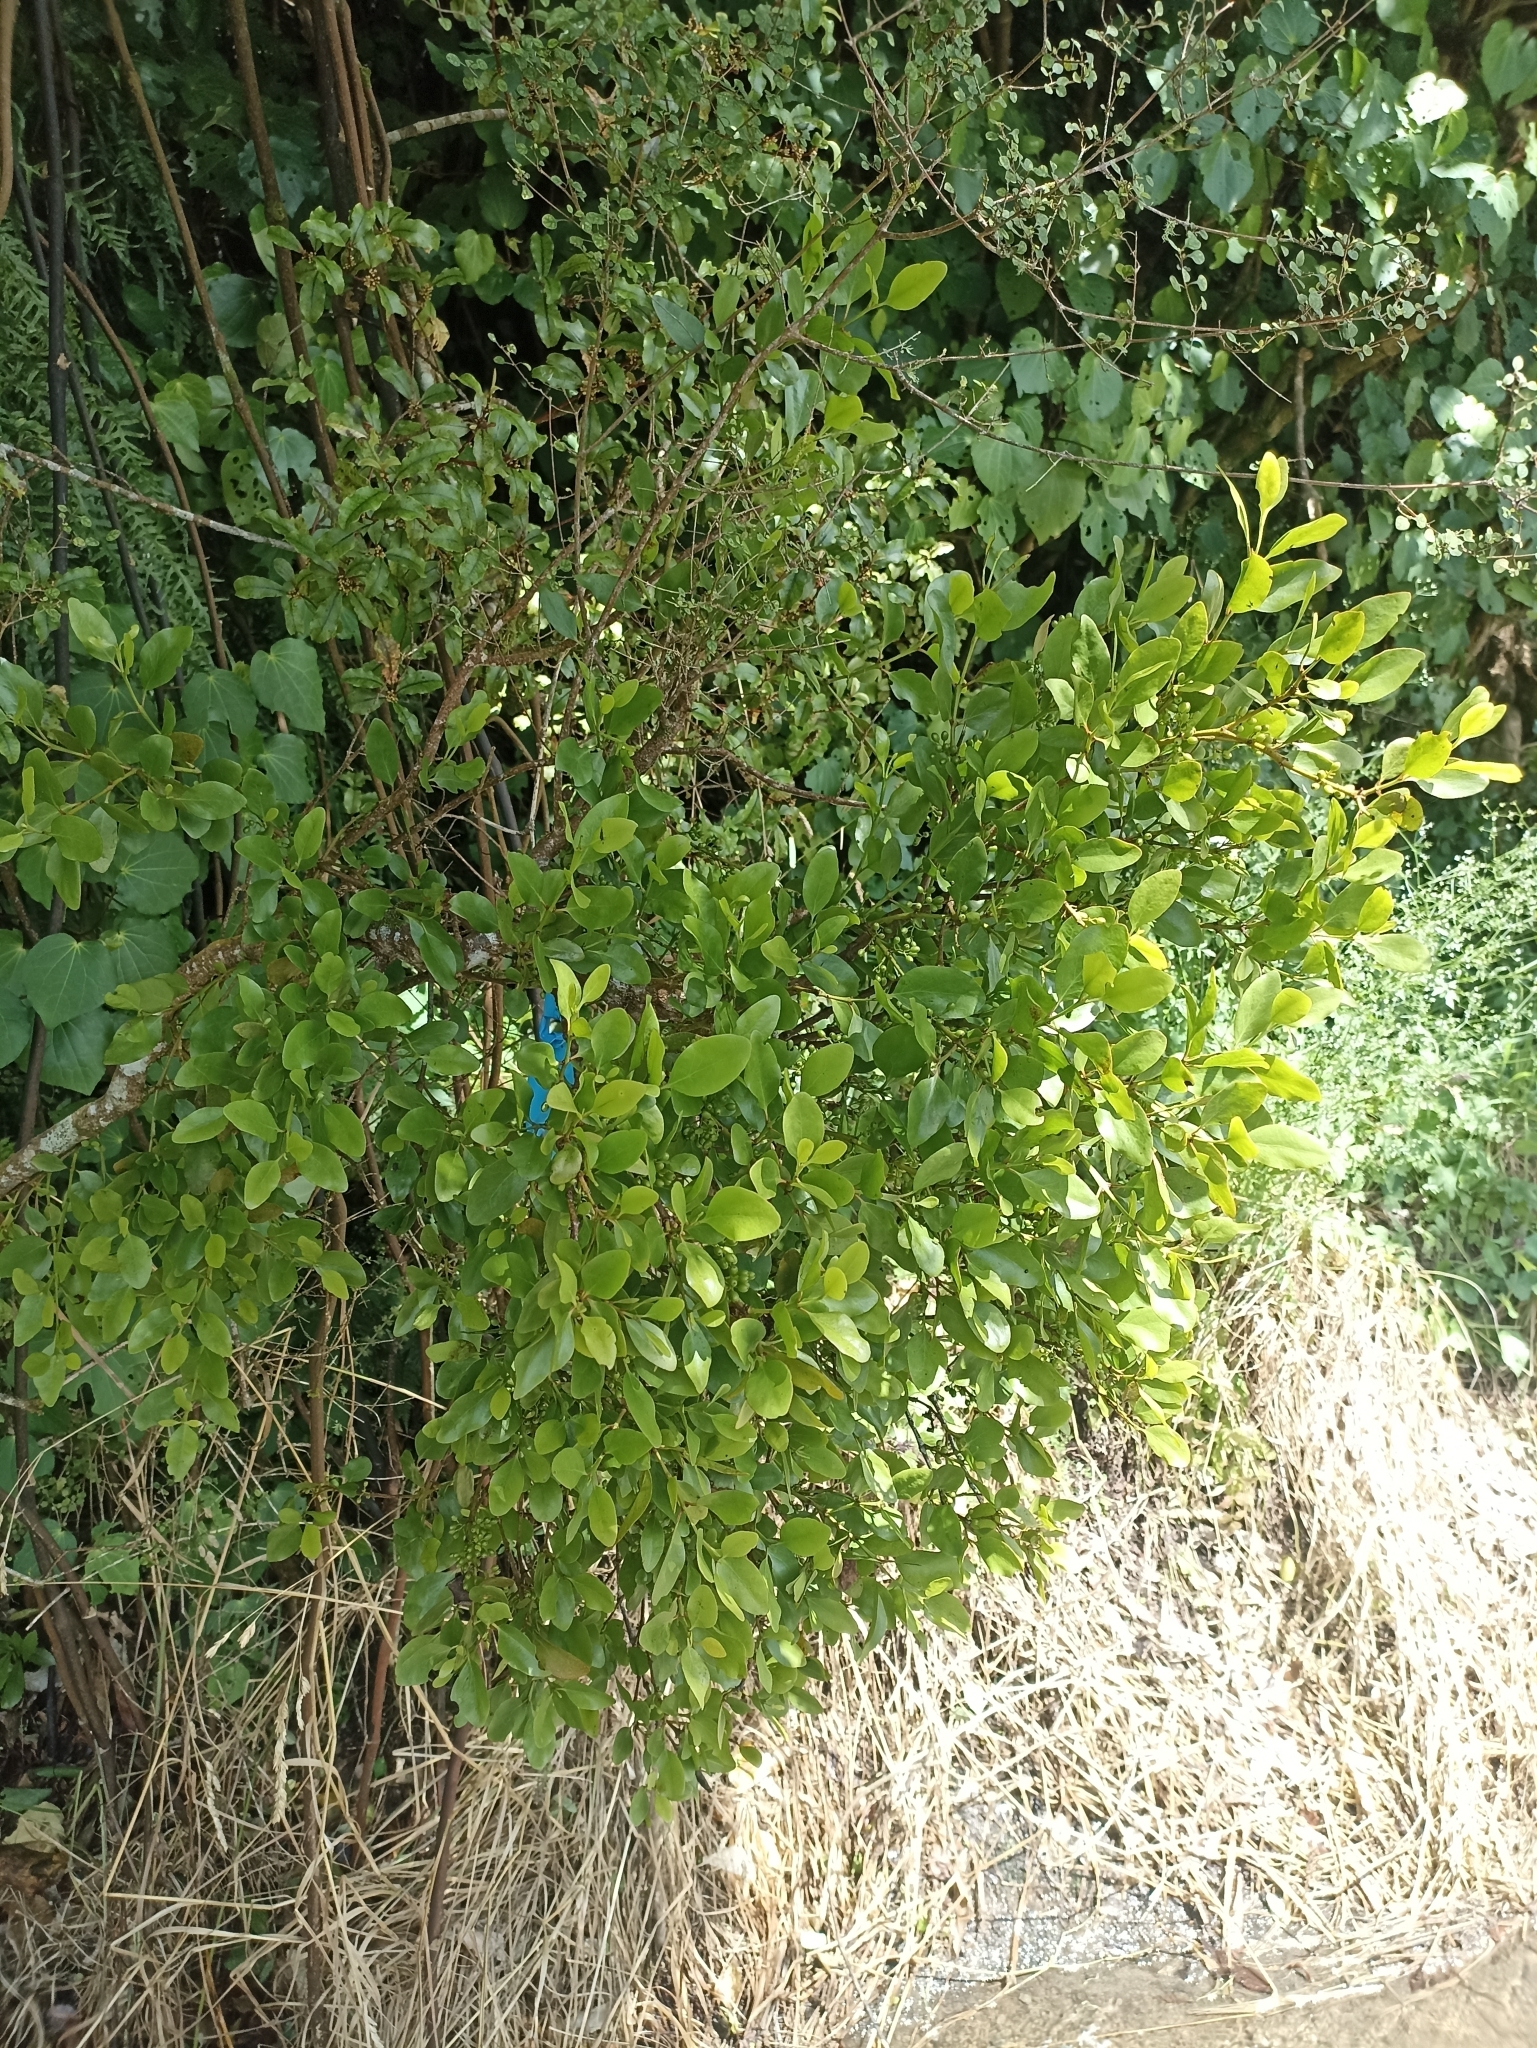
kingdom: Plantae
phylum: Tracheophyta
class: Magnoliopsida
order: Santalales
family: Loranthaceae
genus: Ileostylus
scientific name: Ileostylus micranthus
